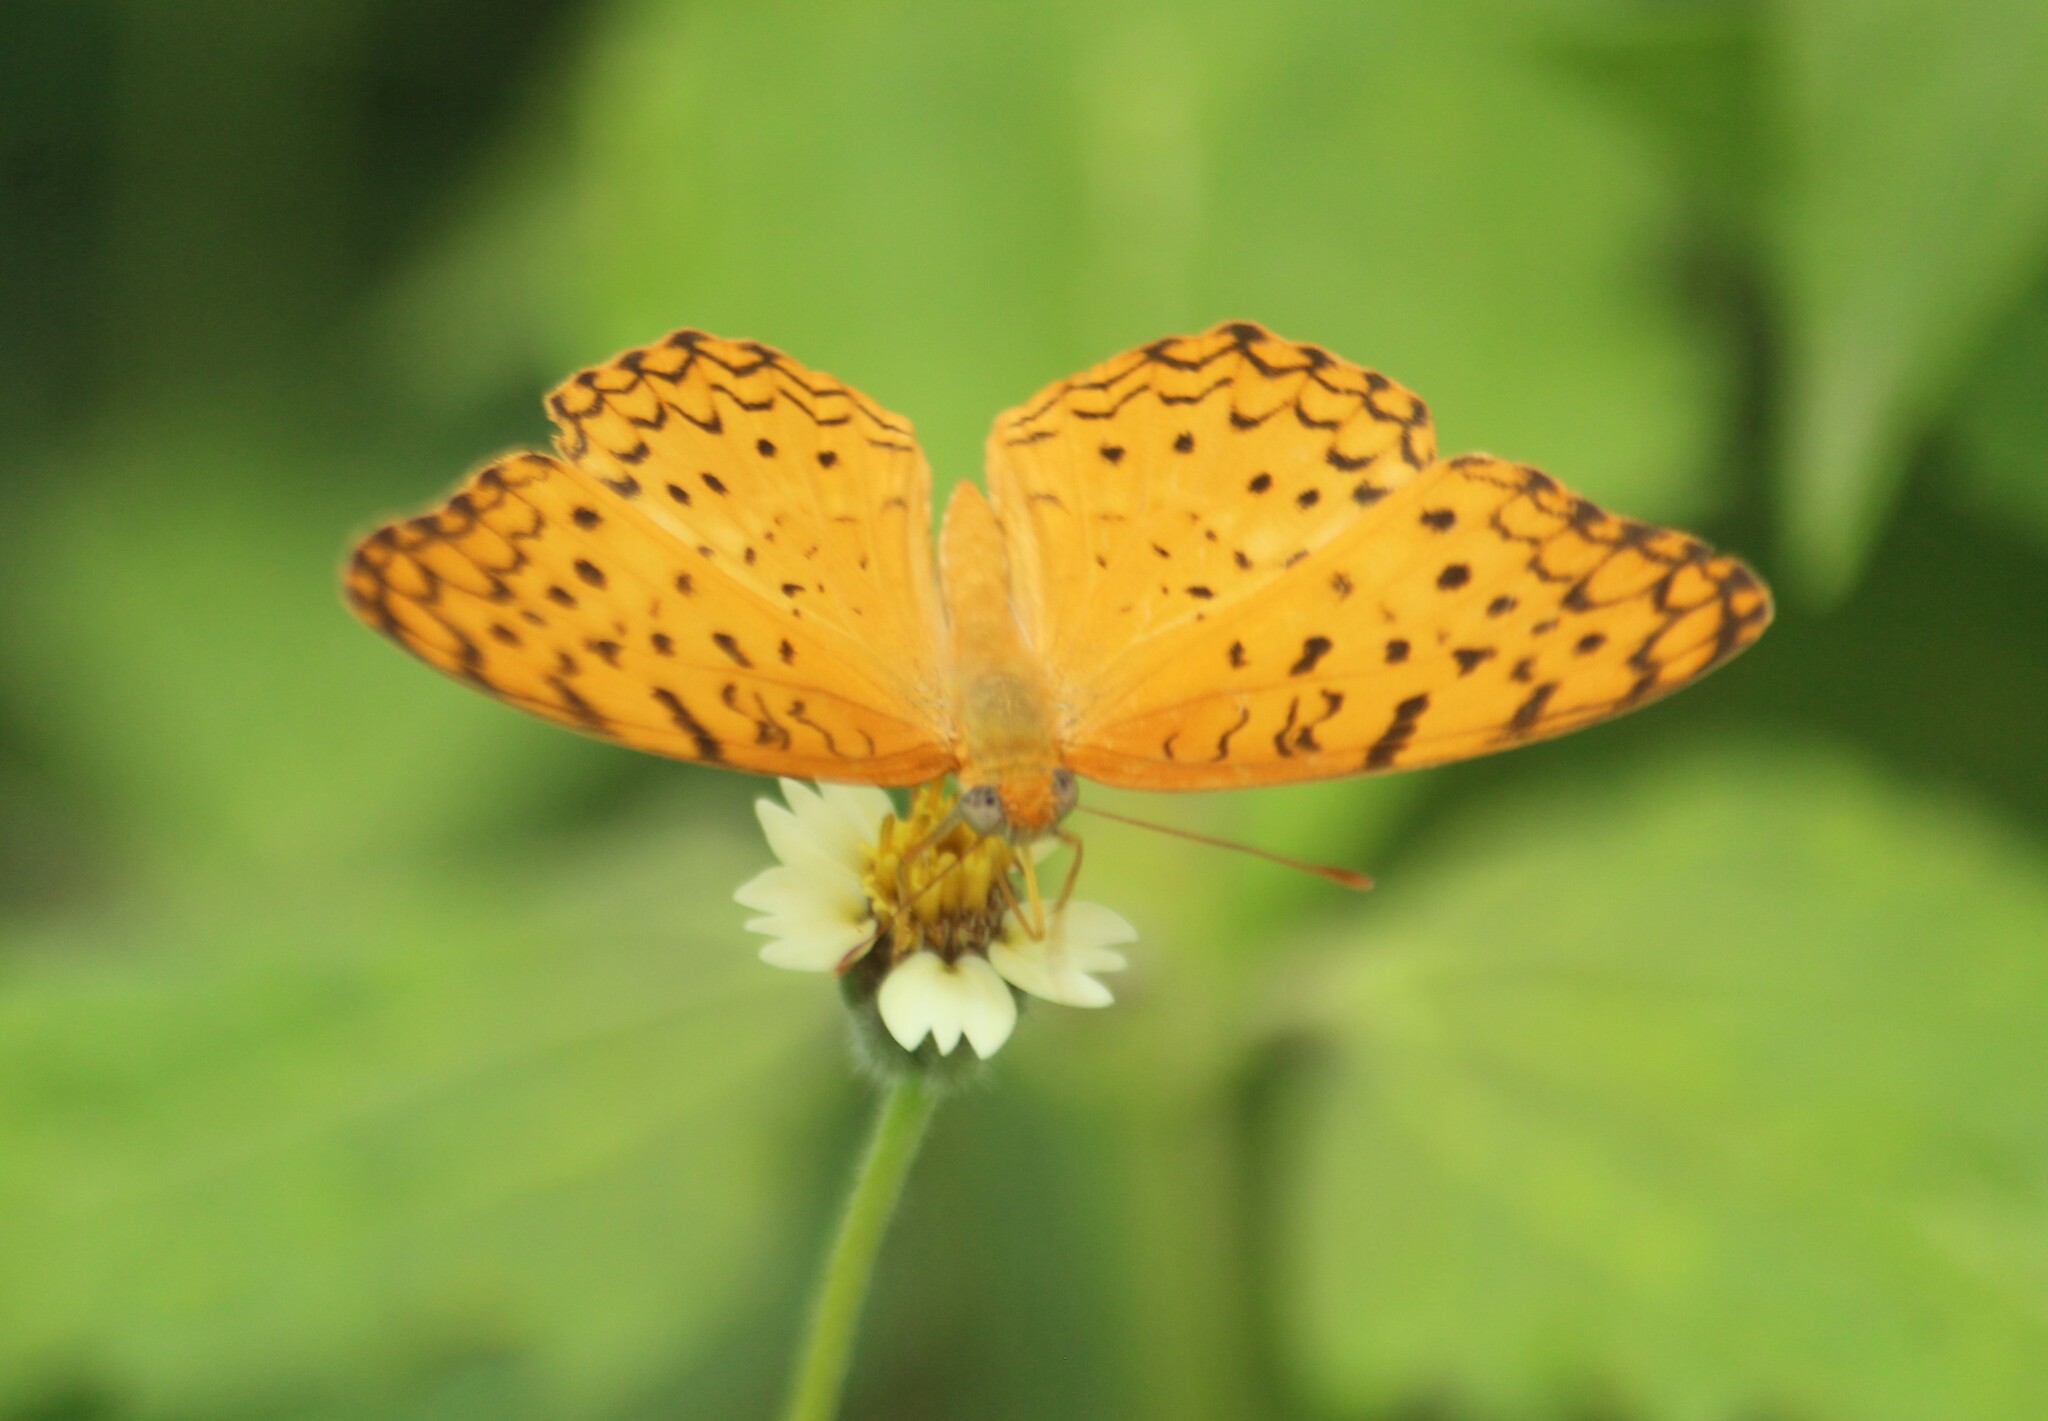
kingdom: Animalia
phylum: Arthropoda
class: Insecta
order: Lepidoptera
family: Nymphalidae
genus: Phalanta
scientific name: Phalanta phalantha
